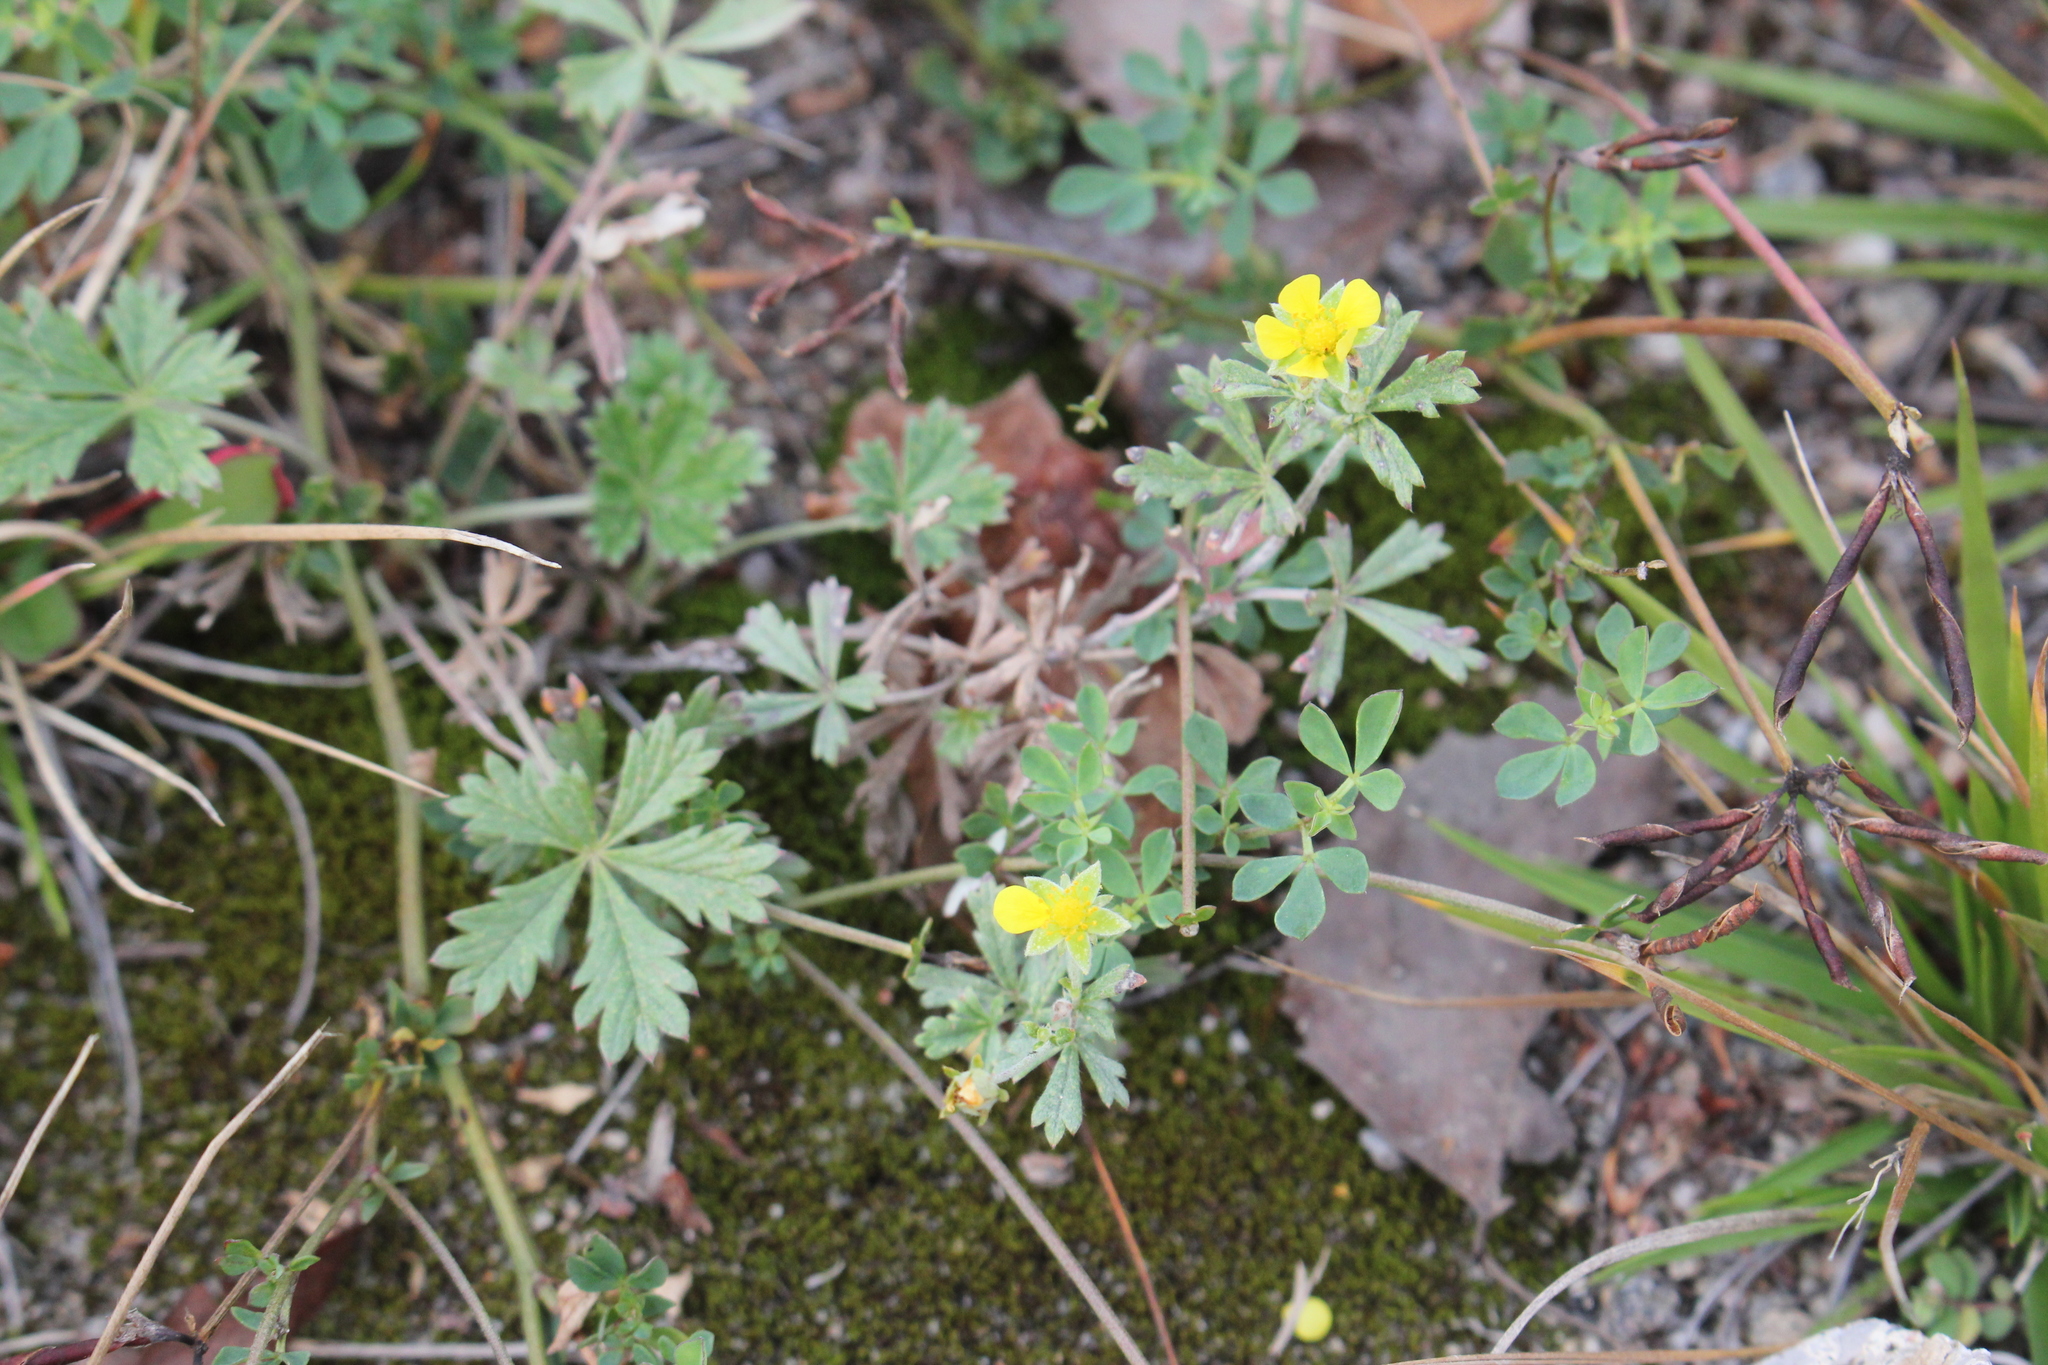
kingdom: Plantae
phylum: Tracheophyta
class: Magnoliopsida
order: Rosales
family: Rosaceae
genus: Potentilla
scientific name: Potentilla argentea
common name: Hoary cinquefoil
